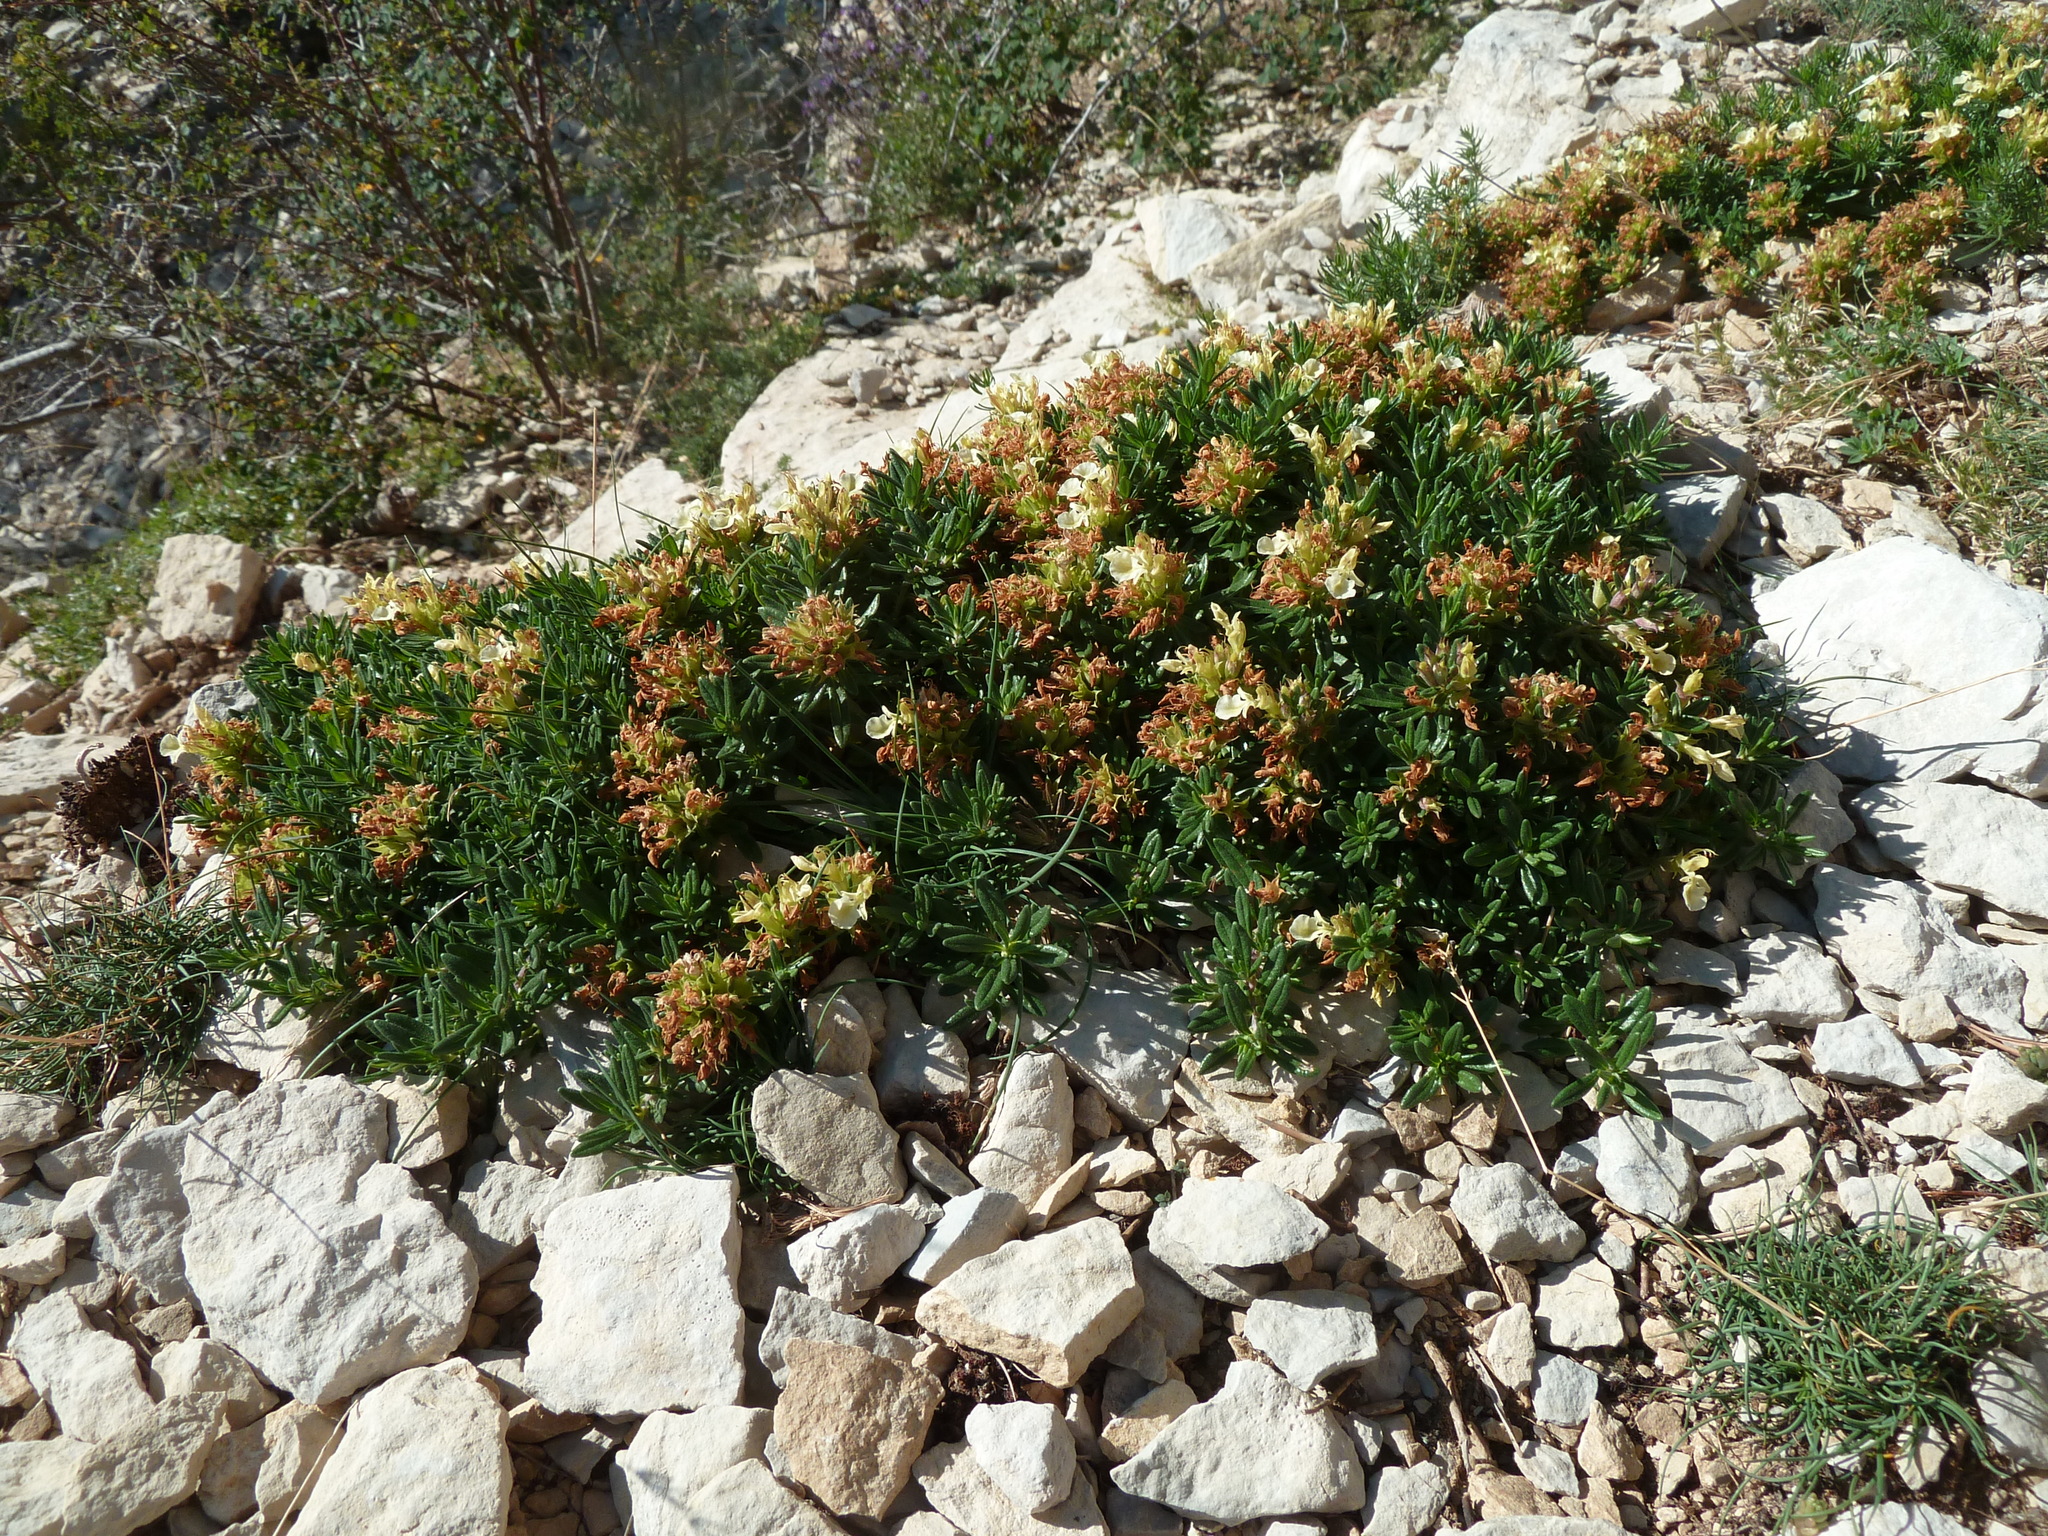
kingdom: Plantae
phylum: Tracheophyta
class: Magnoliopsida
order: Lamiales
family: Lamiaceae
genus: Teucrium
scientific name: Teucrium montanum
